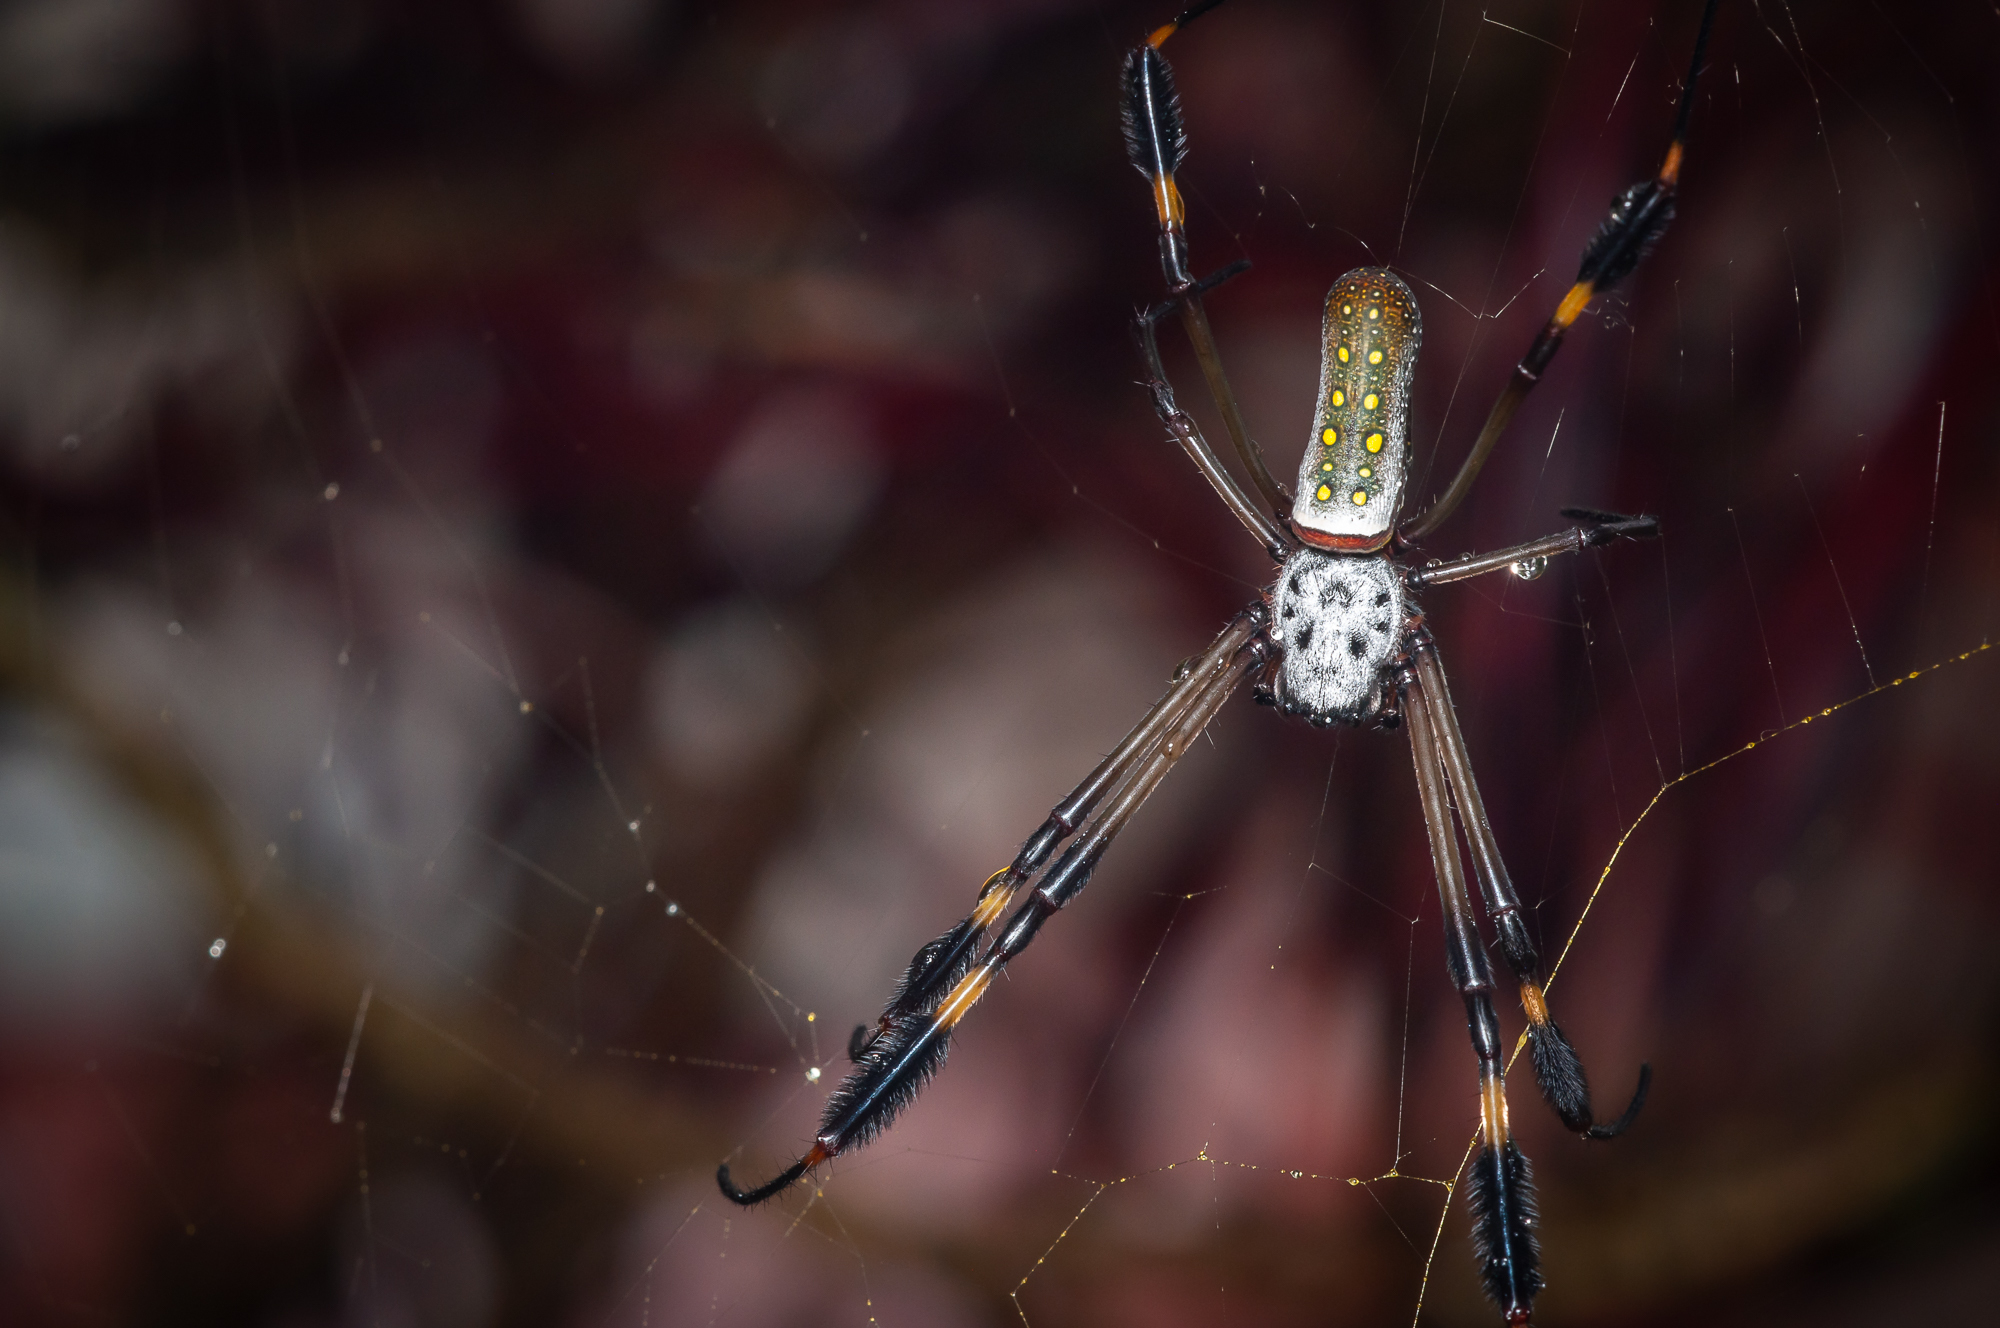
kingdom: Animalia
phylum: Arthropoda
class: Arachnida
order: Araneae
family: Araneidae
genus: Trichonephila
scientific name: Trichonephila clavipes
